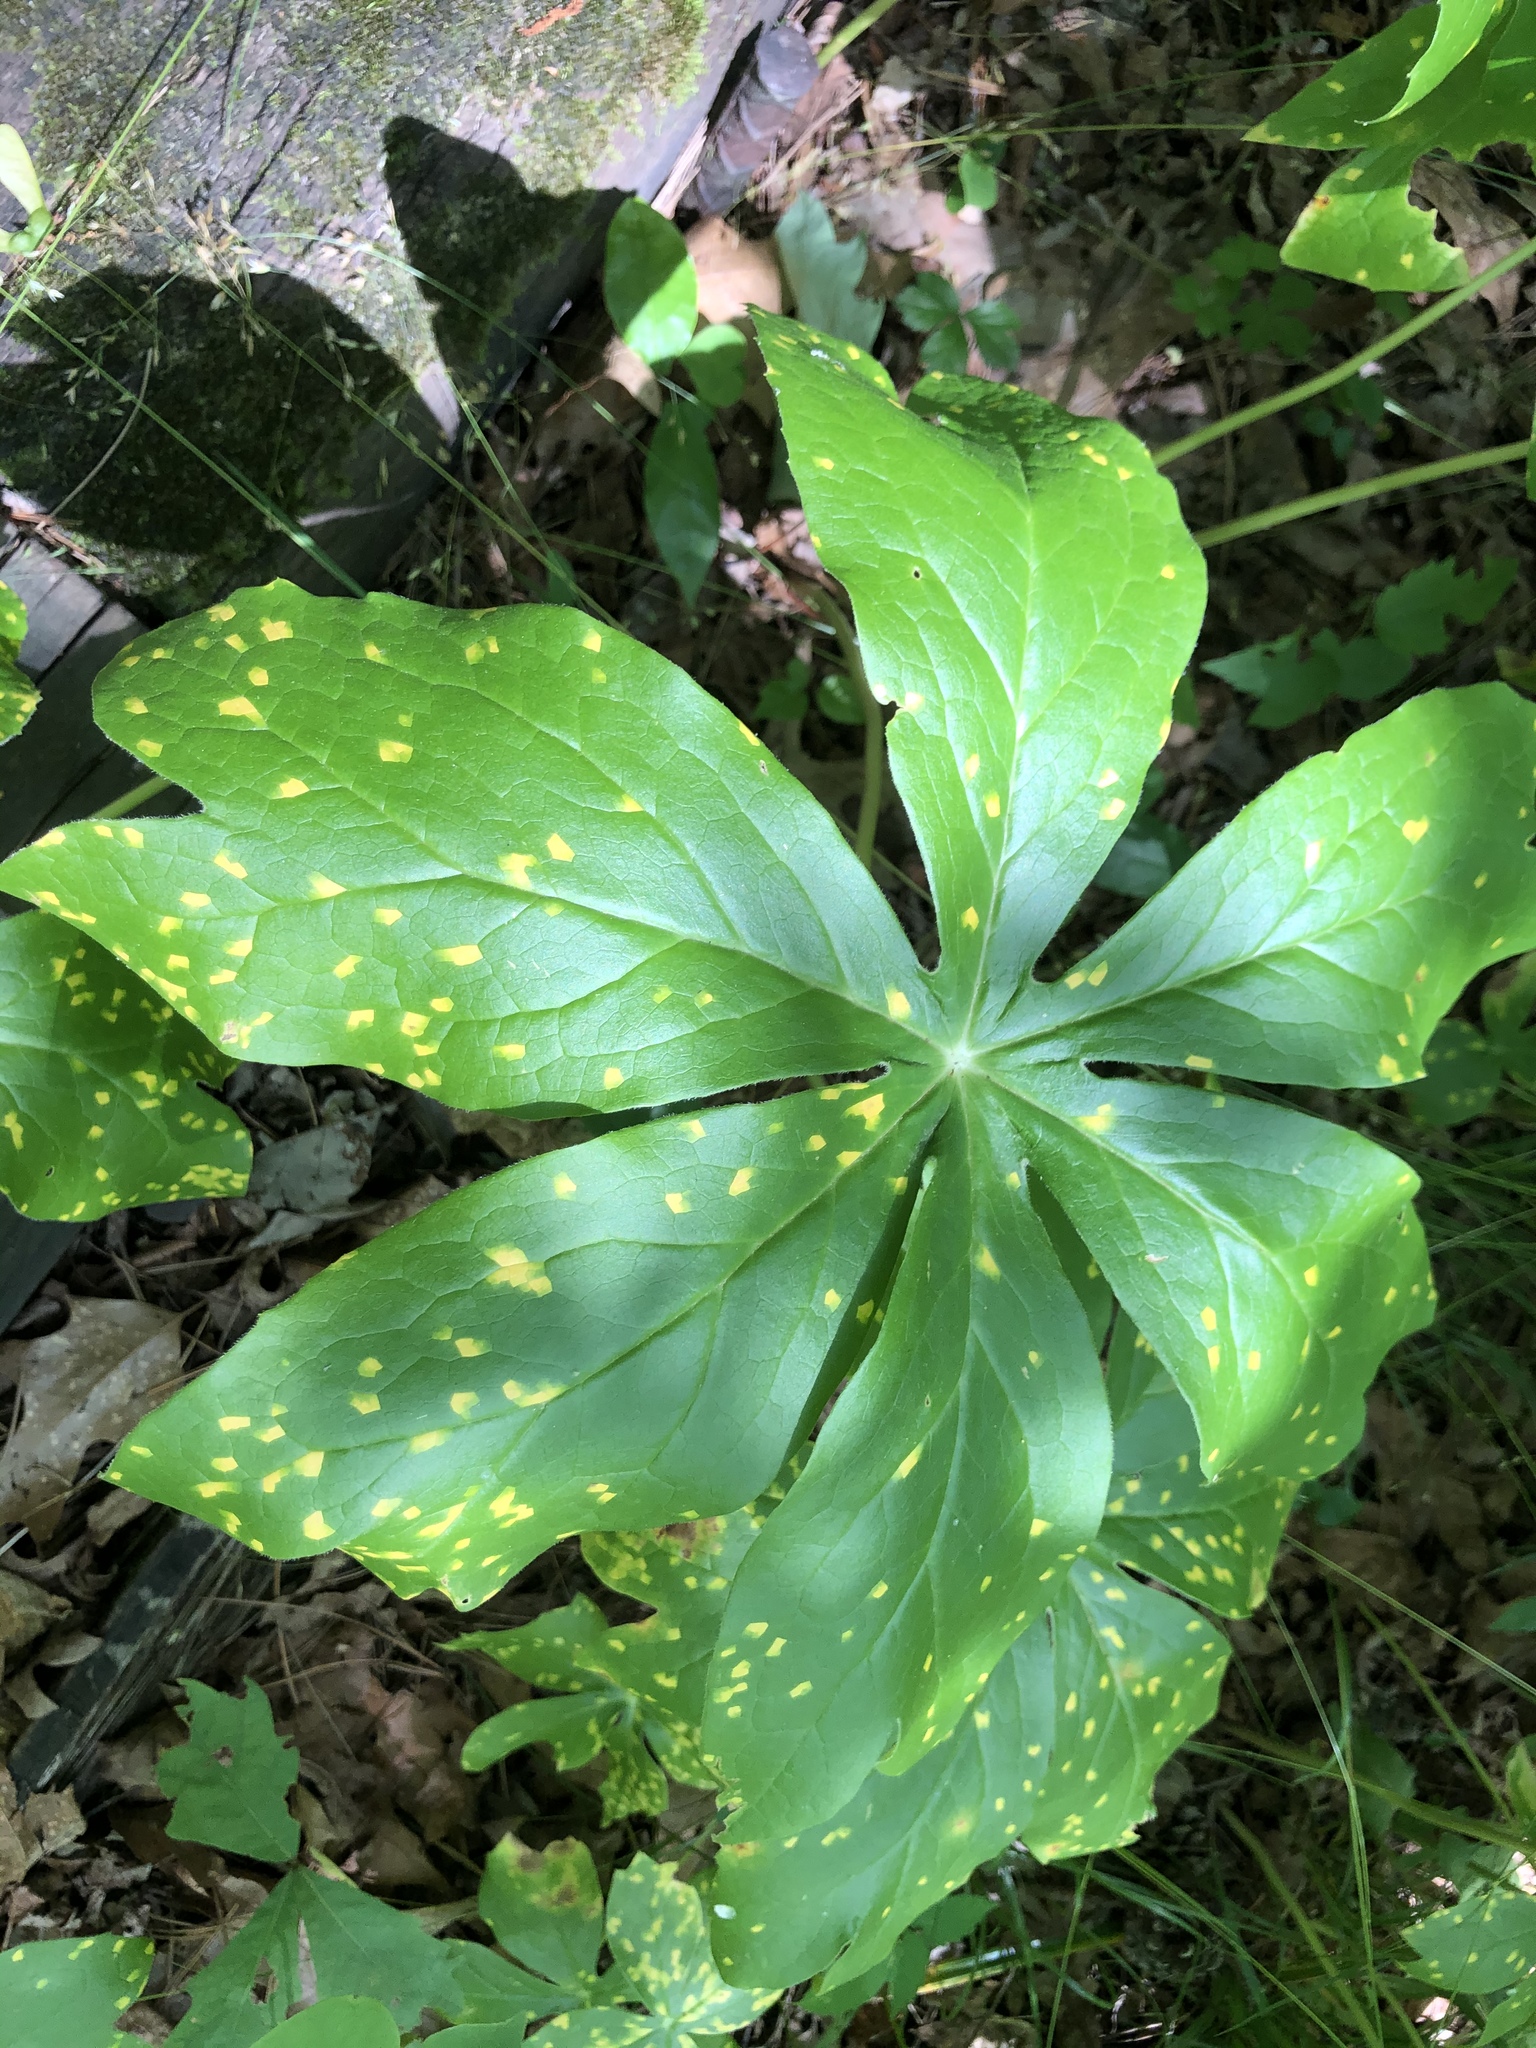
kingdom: Fungi
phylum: Basidiomycota
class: Pucciniomycetes
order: Pucciniales
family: Pucciniaceae
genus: Puccinia
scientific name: Puccinia podophylli
